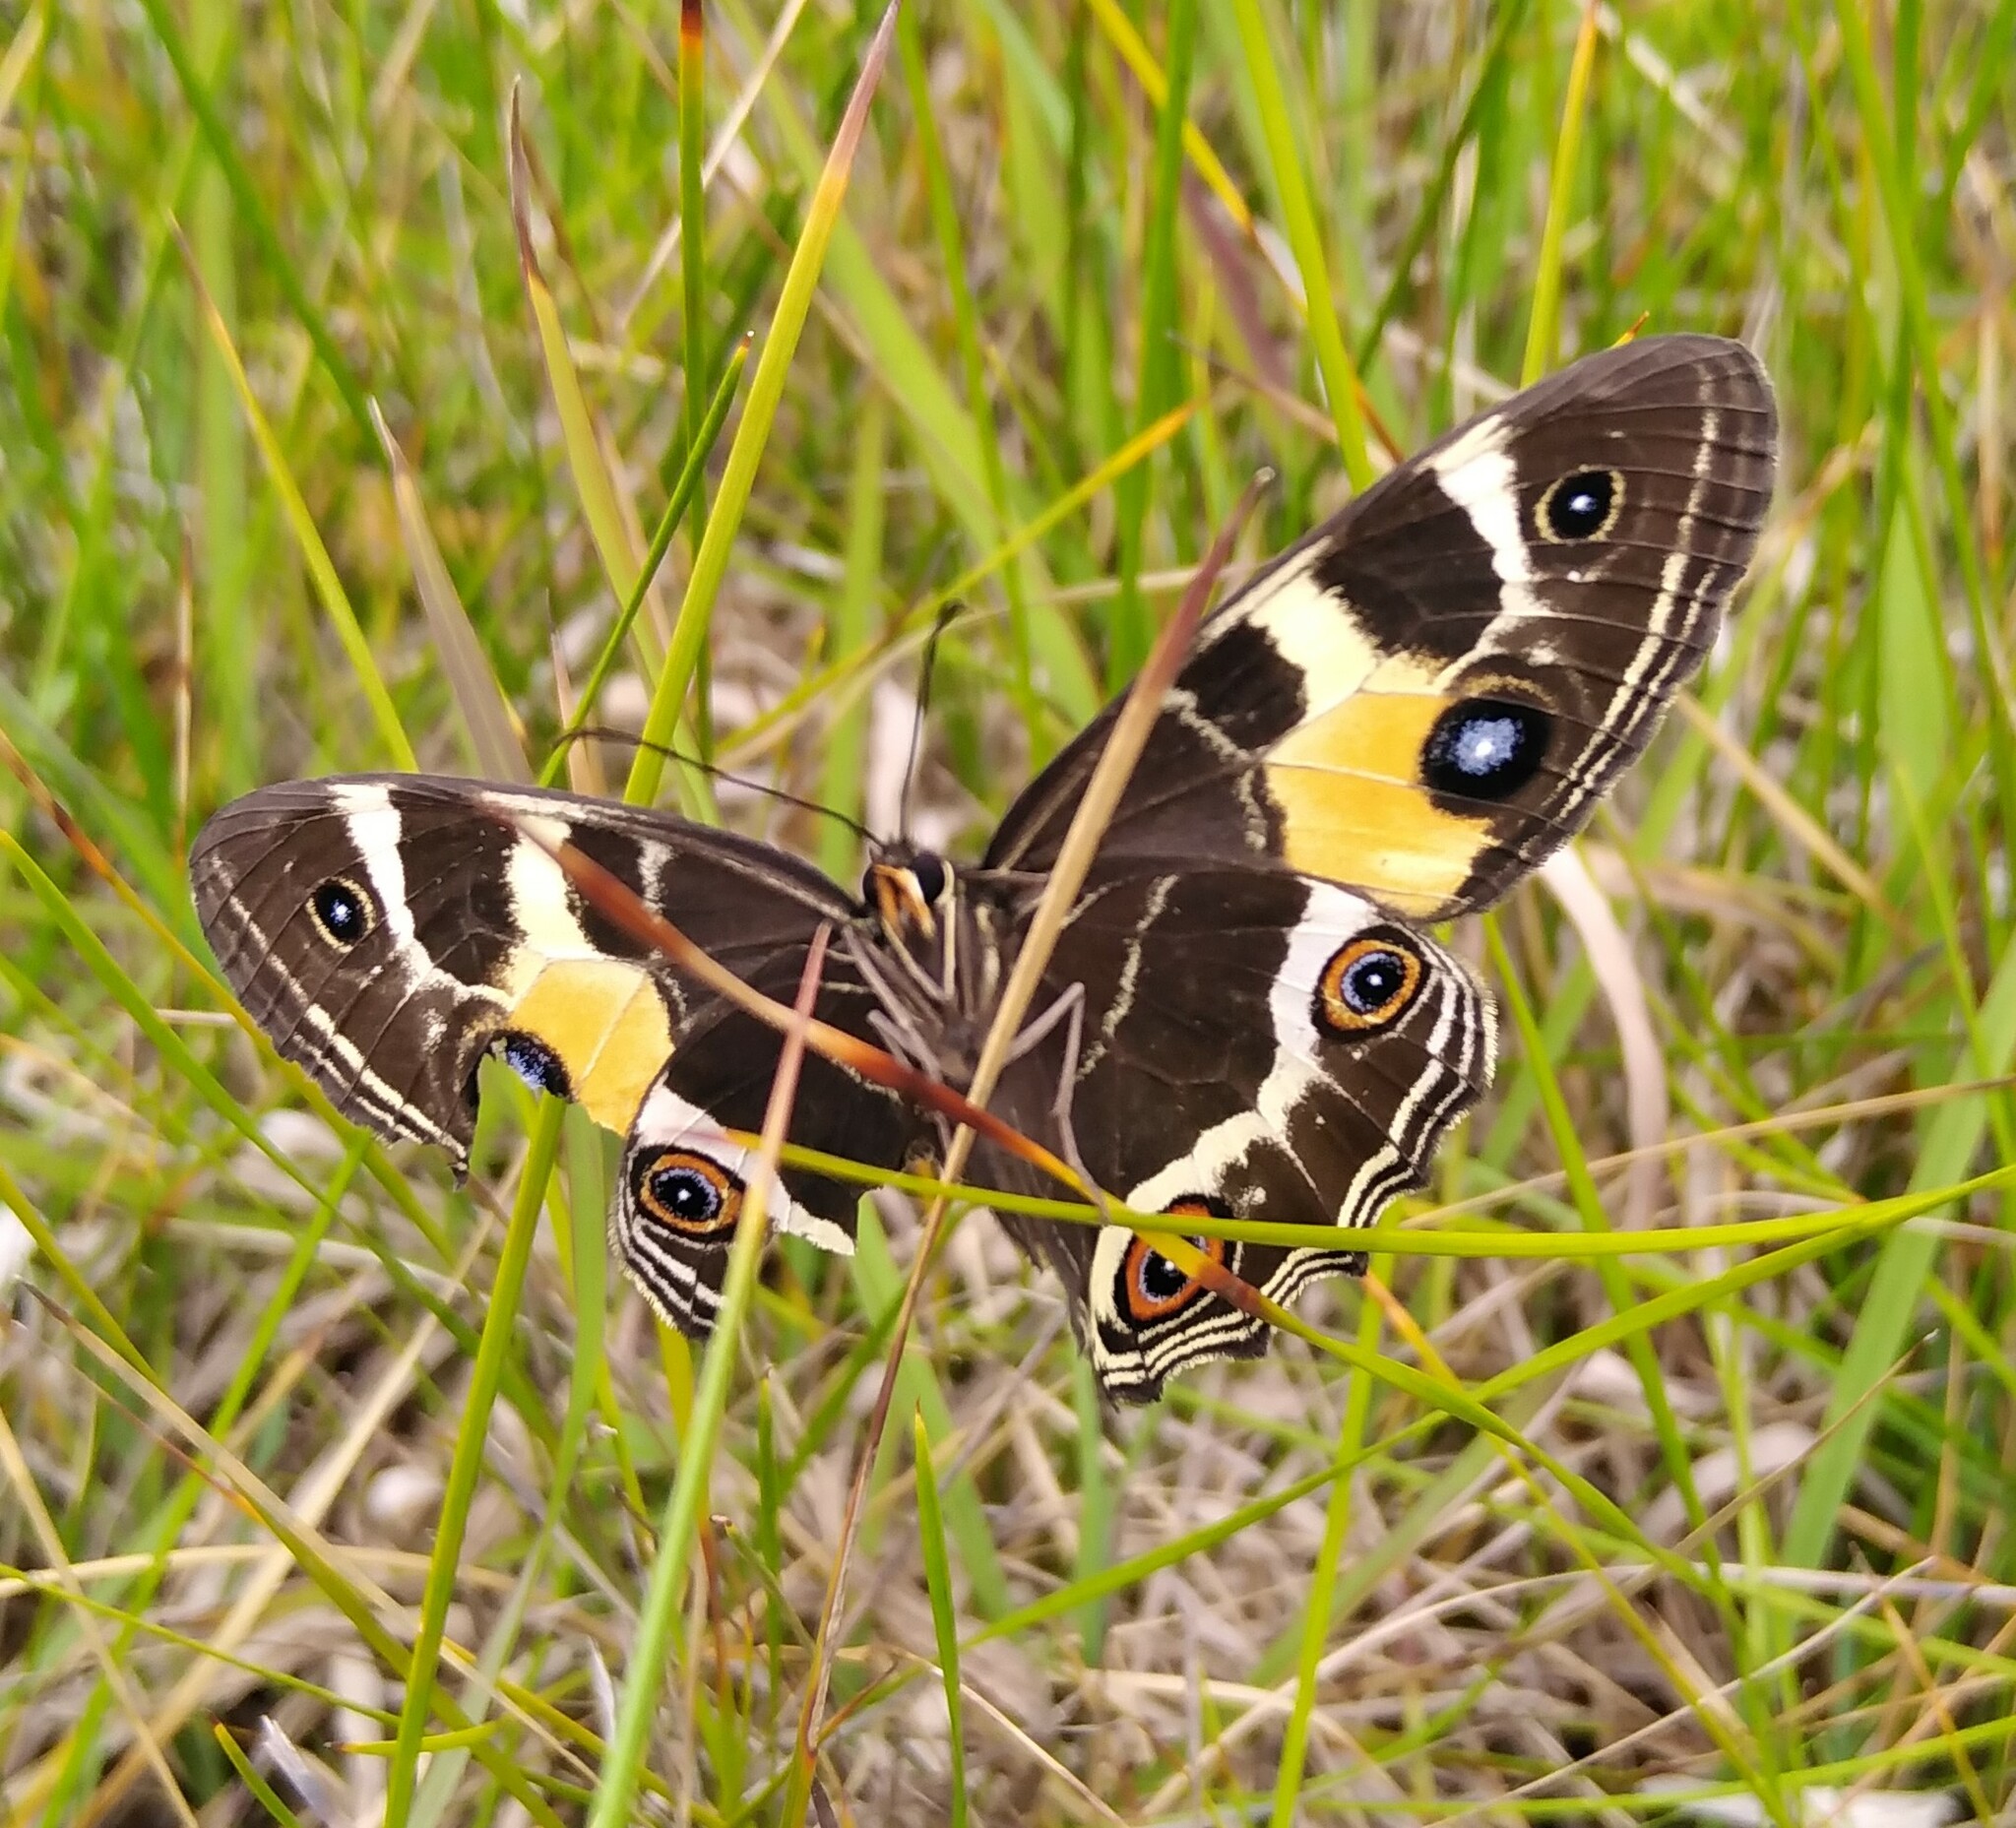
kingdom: Animalia
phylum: Arthropoda
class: Insecta
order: Lepidoptera
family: Nymphalidae
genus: Tisiphone
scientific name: Tisiphone abeona
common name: Swordgrass brown
